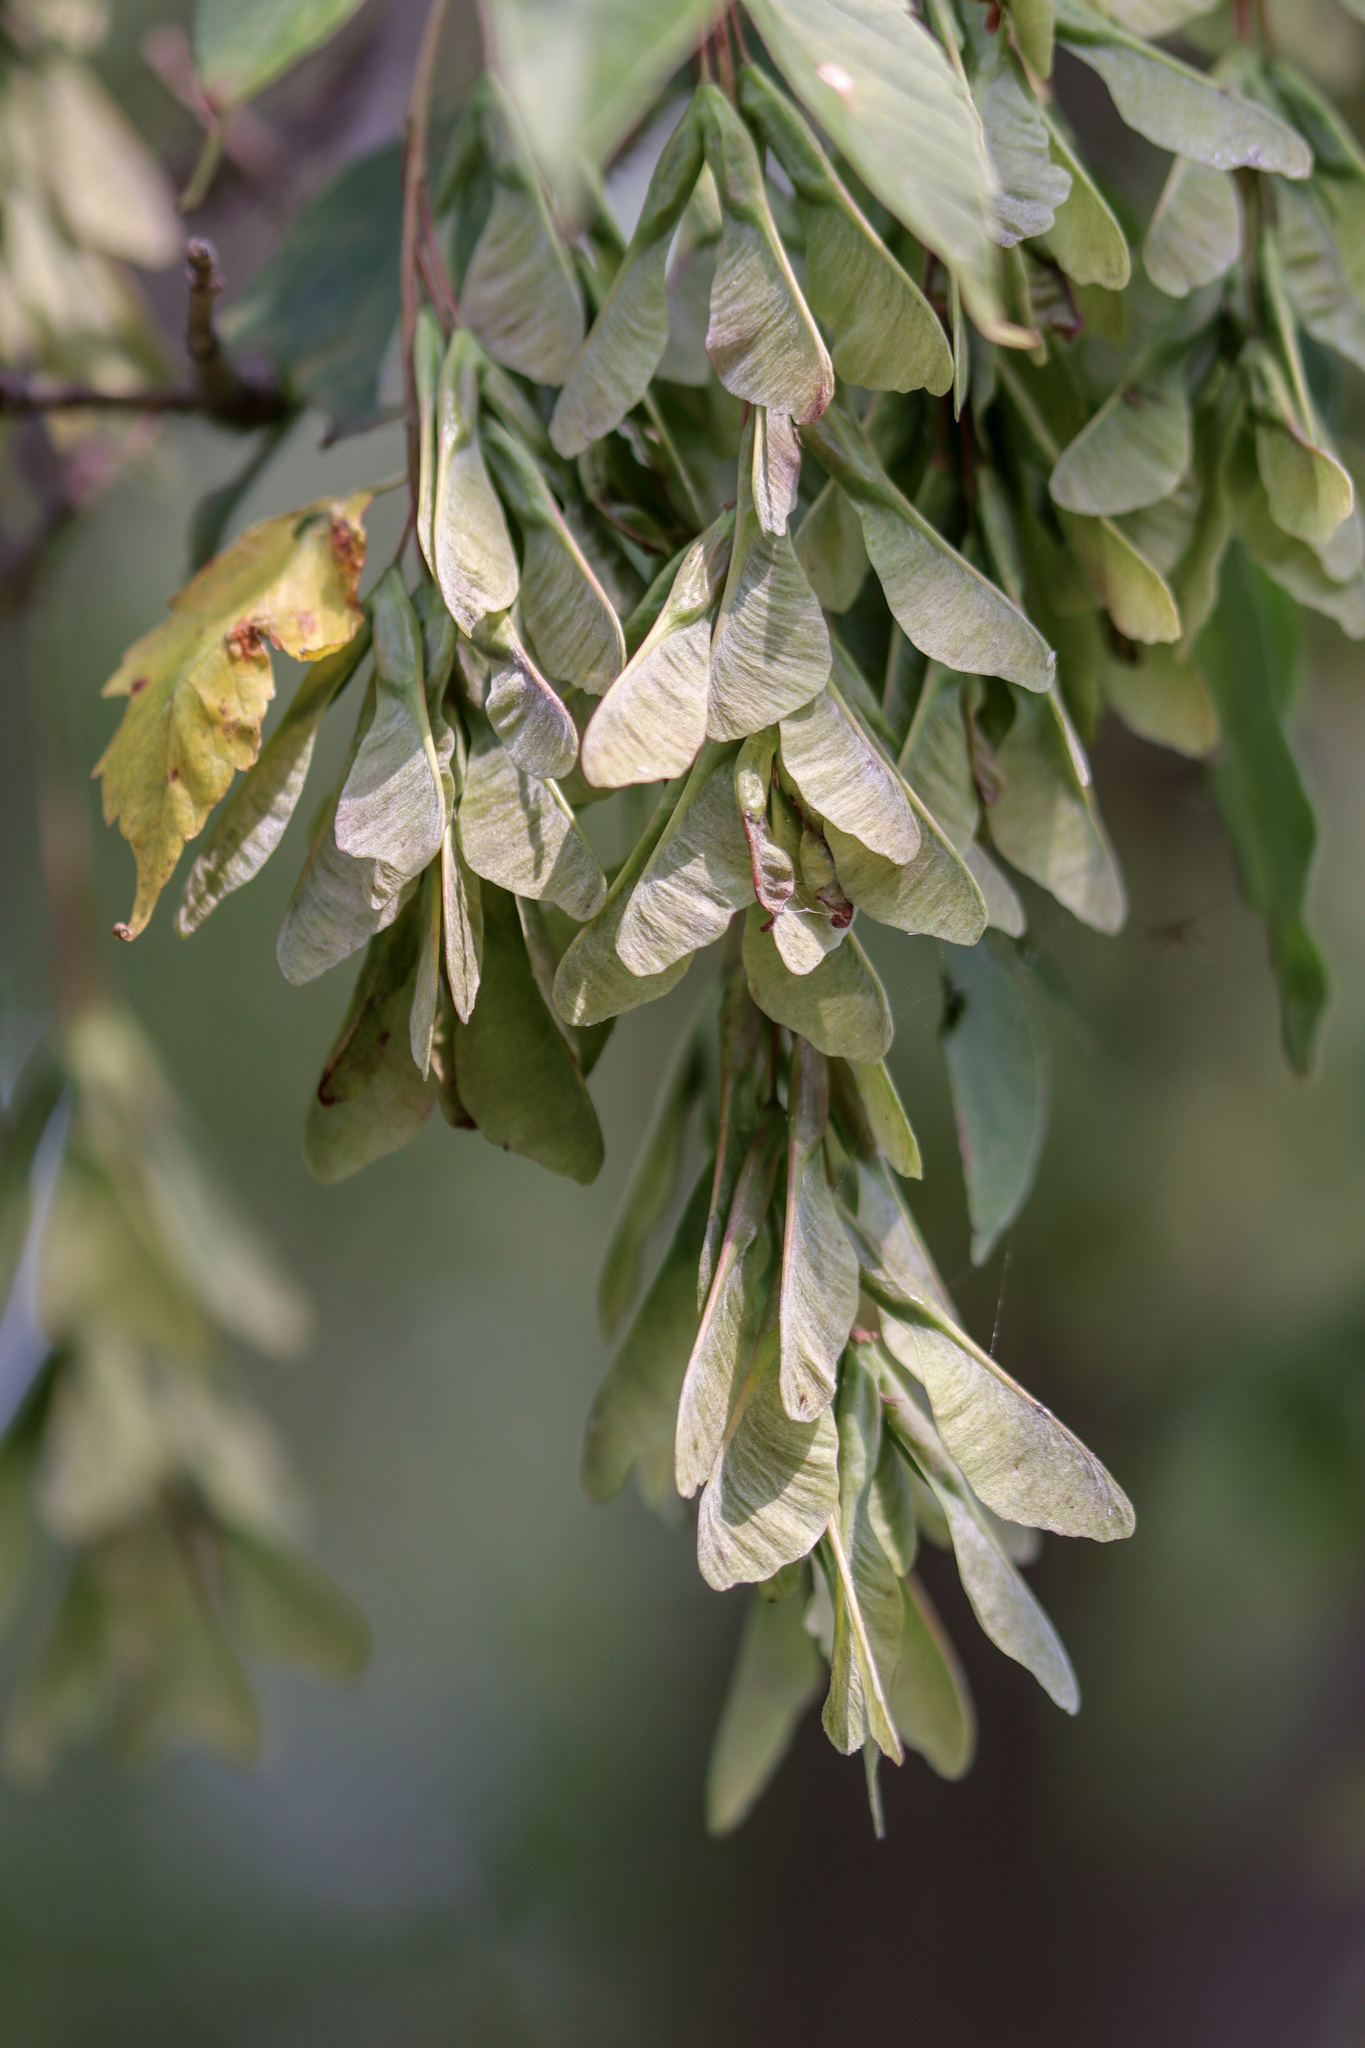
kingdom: Plantae
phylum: Tracheophyta
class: Magnoliopsida
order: Sapindales
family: Sapindaceae
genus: Acer
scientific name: Acer negundo
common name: Ashleaf maple
